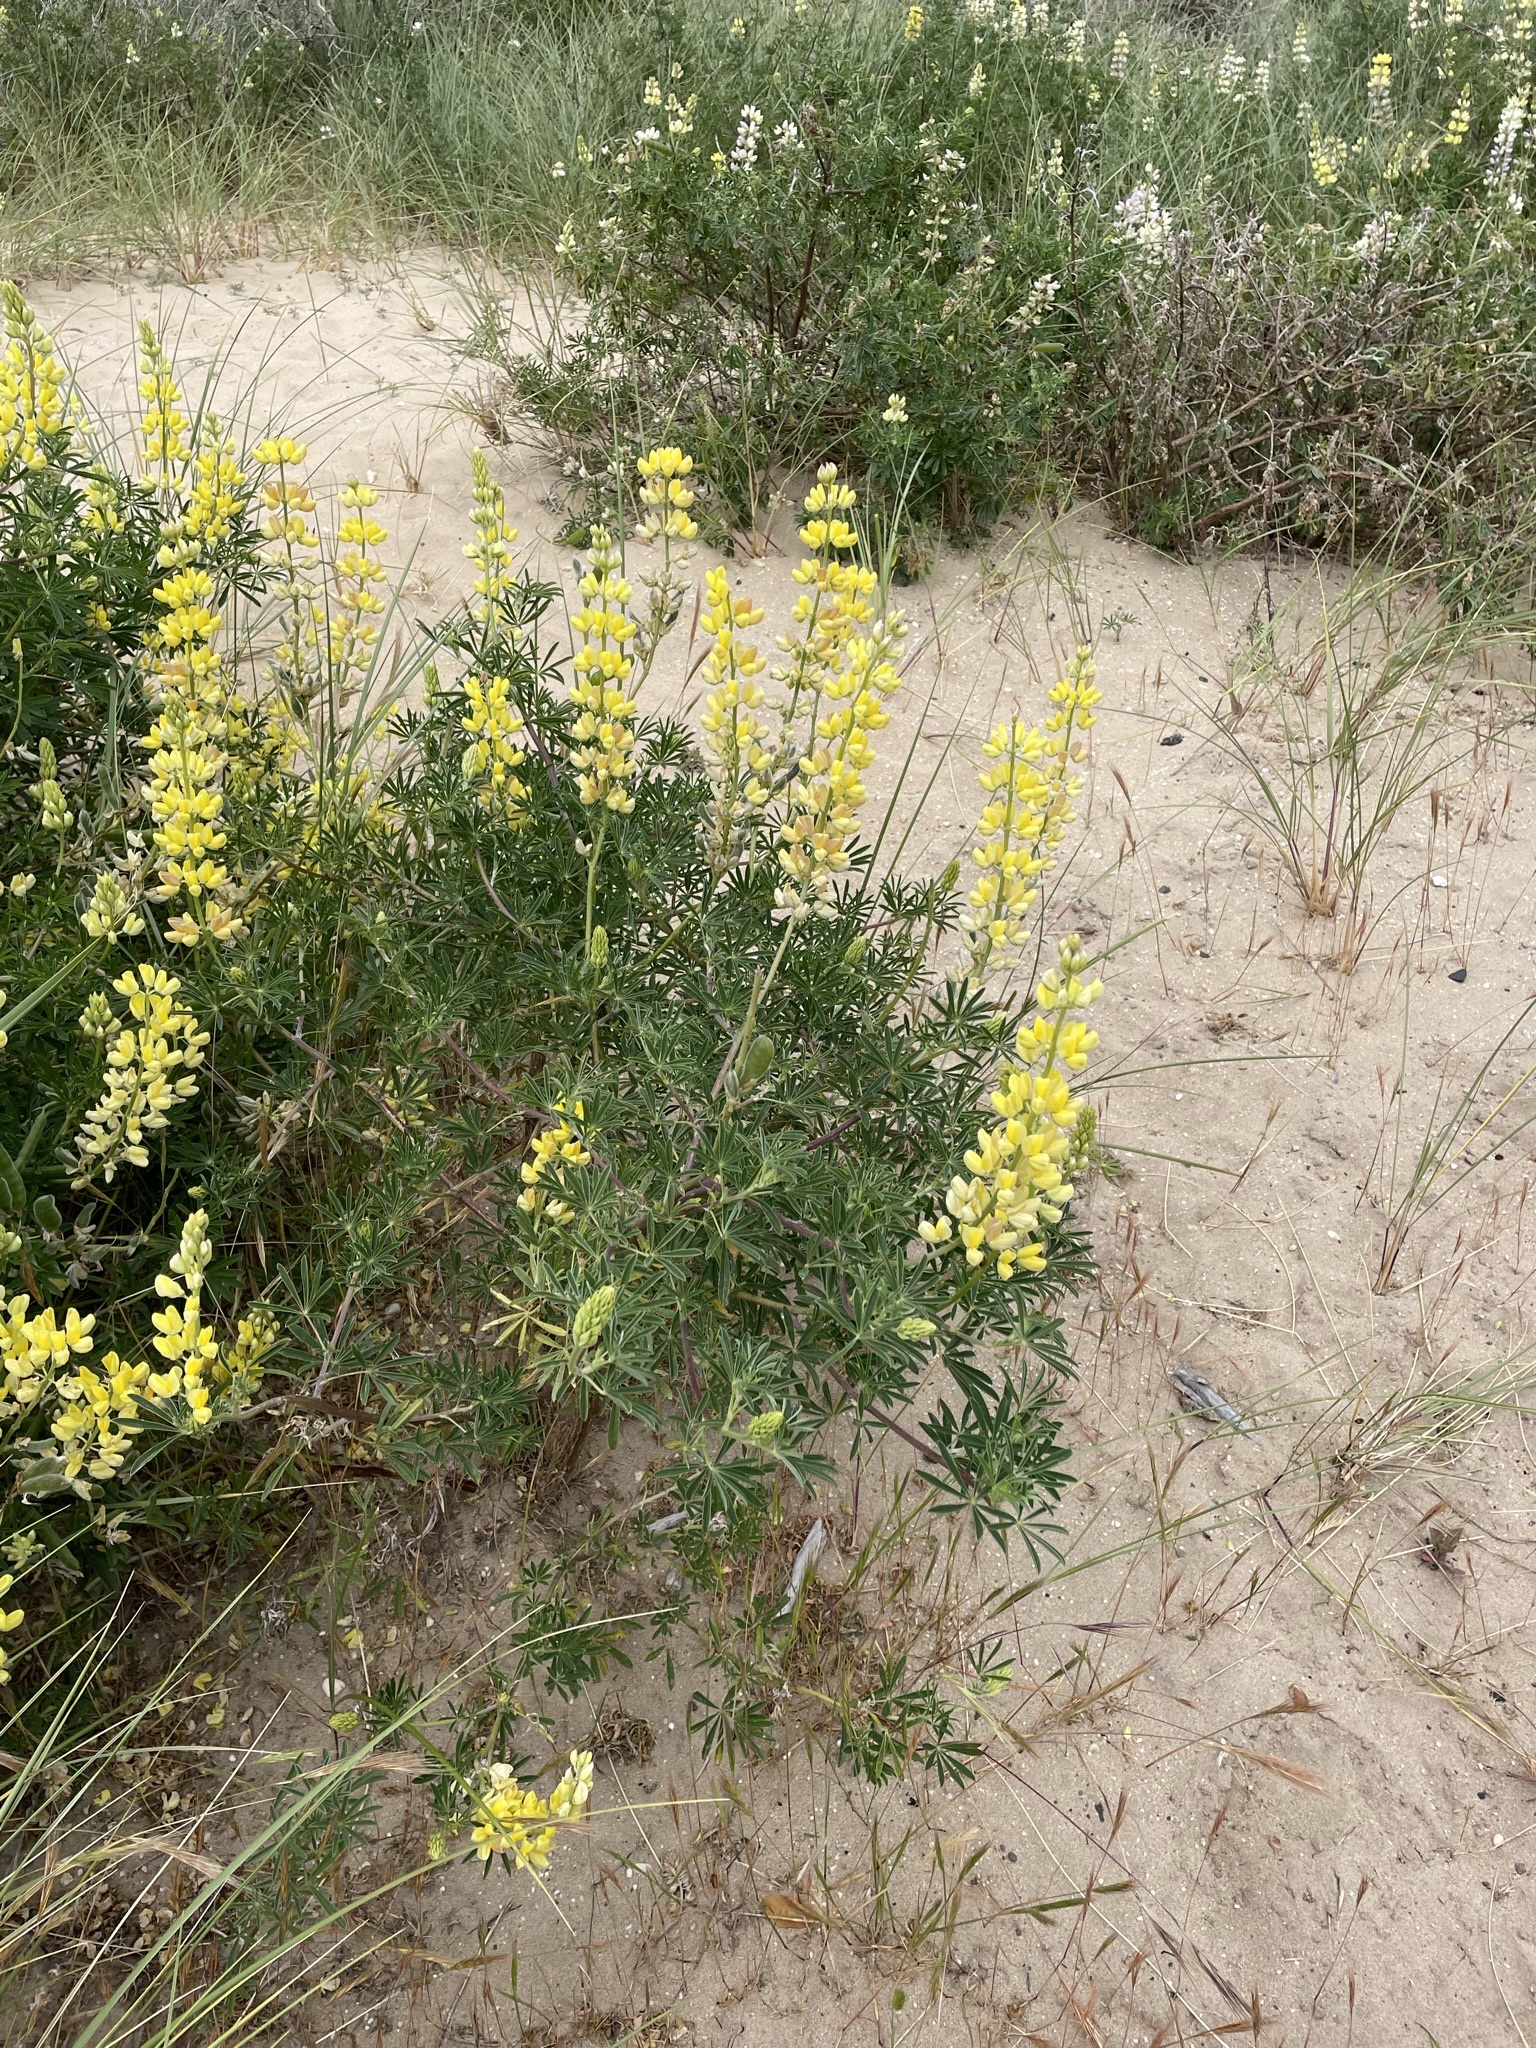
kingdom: Plantae
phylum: Tracheophyta
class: Magnoliopsida
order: Fabales
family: Fabaceae
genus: Lupinus
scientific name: Lupinus arboreus
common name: Yellow bush lupine
